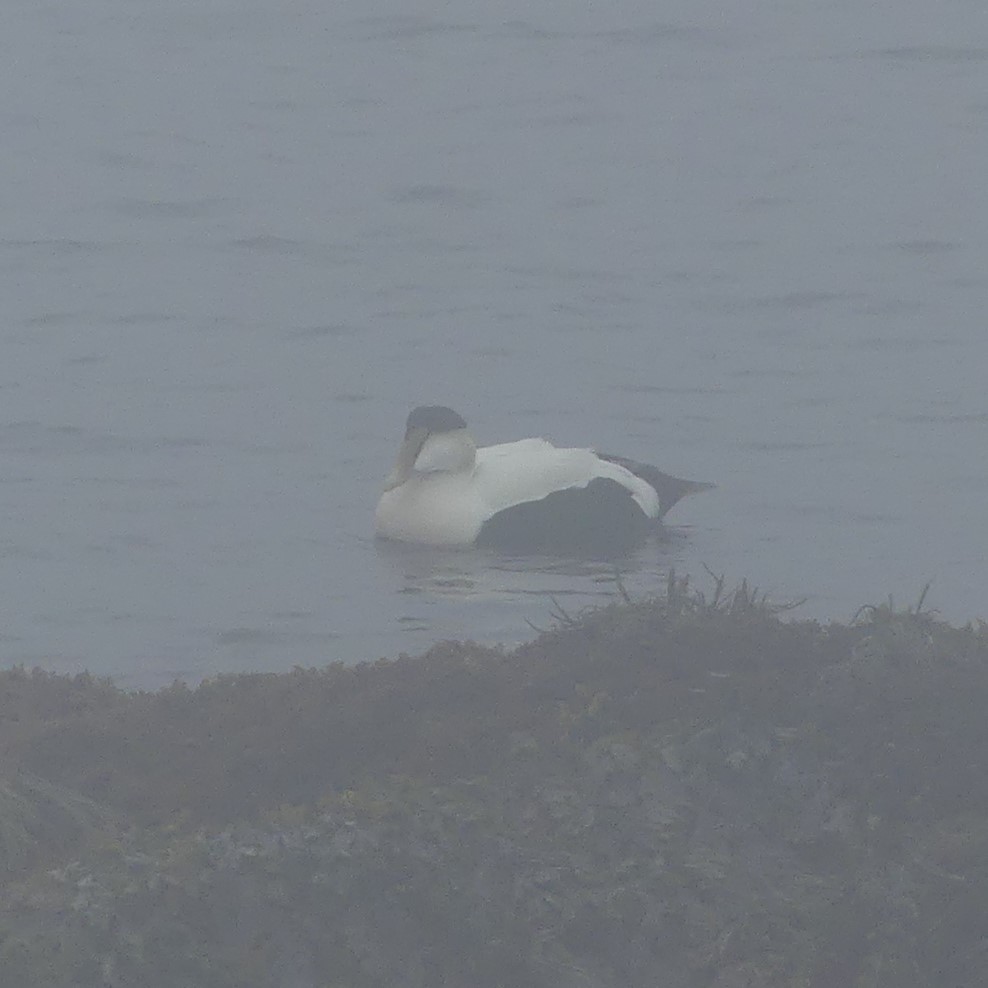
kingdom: Animalia
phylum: Chordata
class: Aves
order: Anseriformes
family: Anatidae
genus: Somateria
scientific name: Somateria mollissima
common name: Common eider
